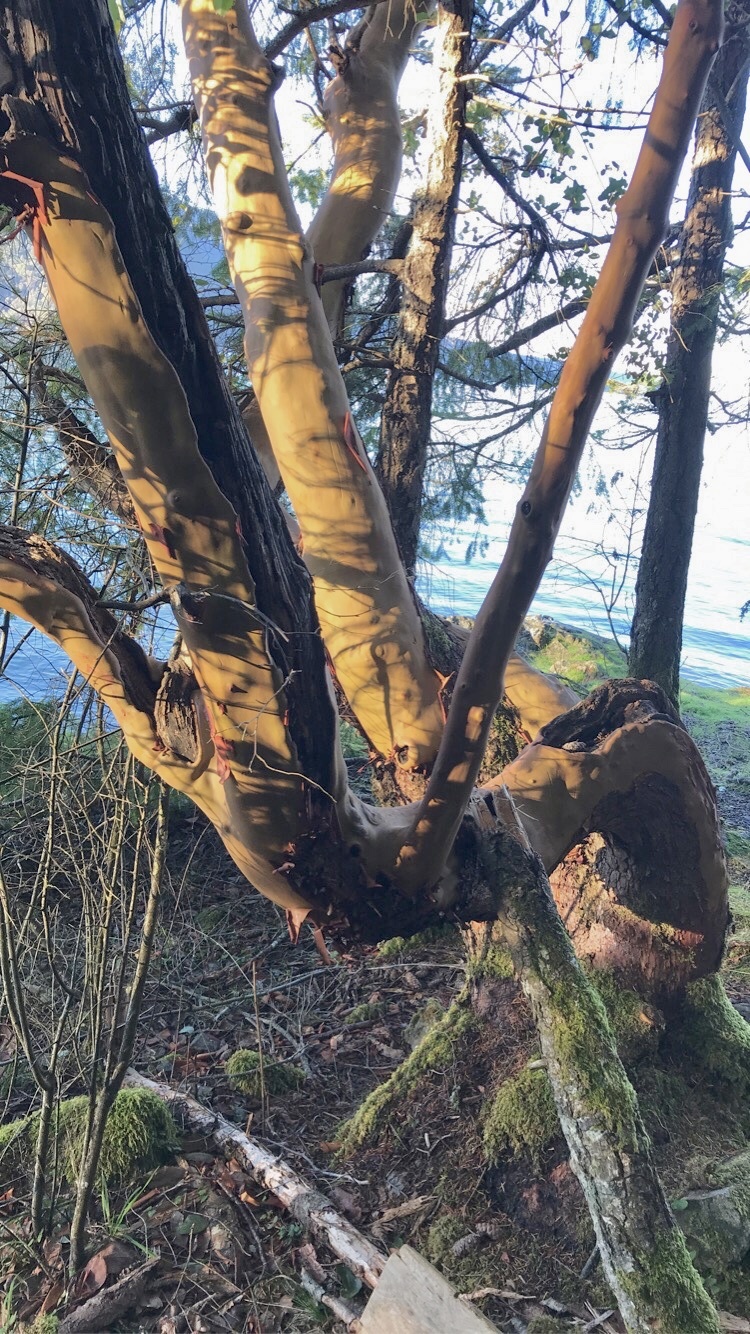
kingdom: Plantae
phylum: Tracheophyta
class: Magnoliopsida
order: Ericales
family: Ericaceae
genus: Arbutus
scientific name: Arbutus menziesii
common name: Pacific madrone
